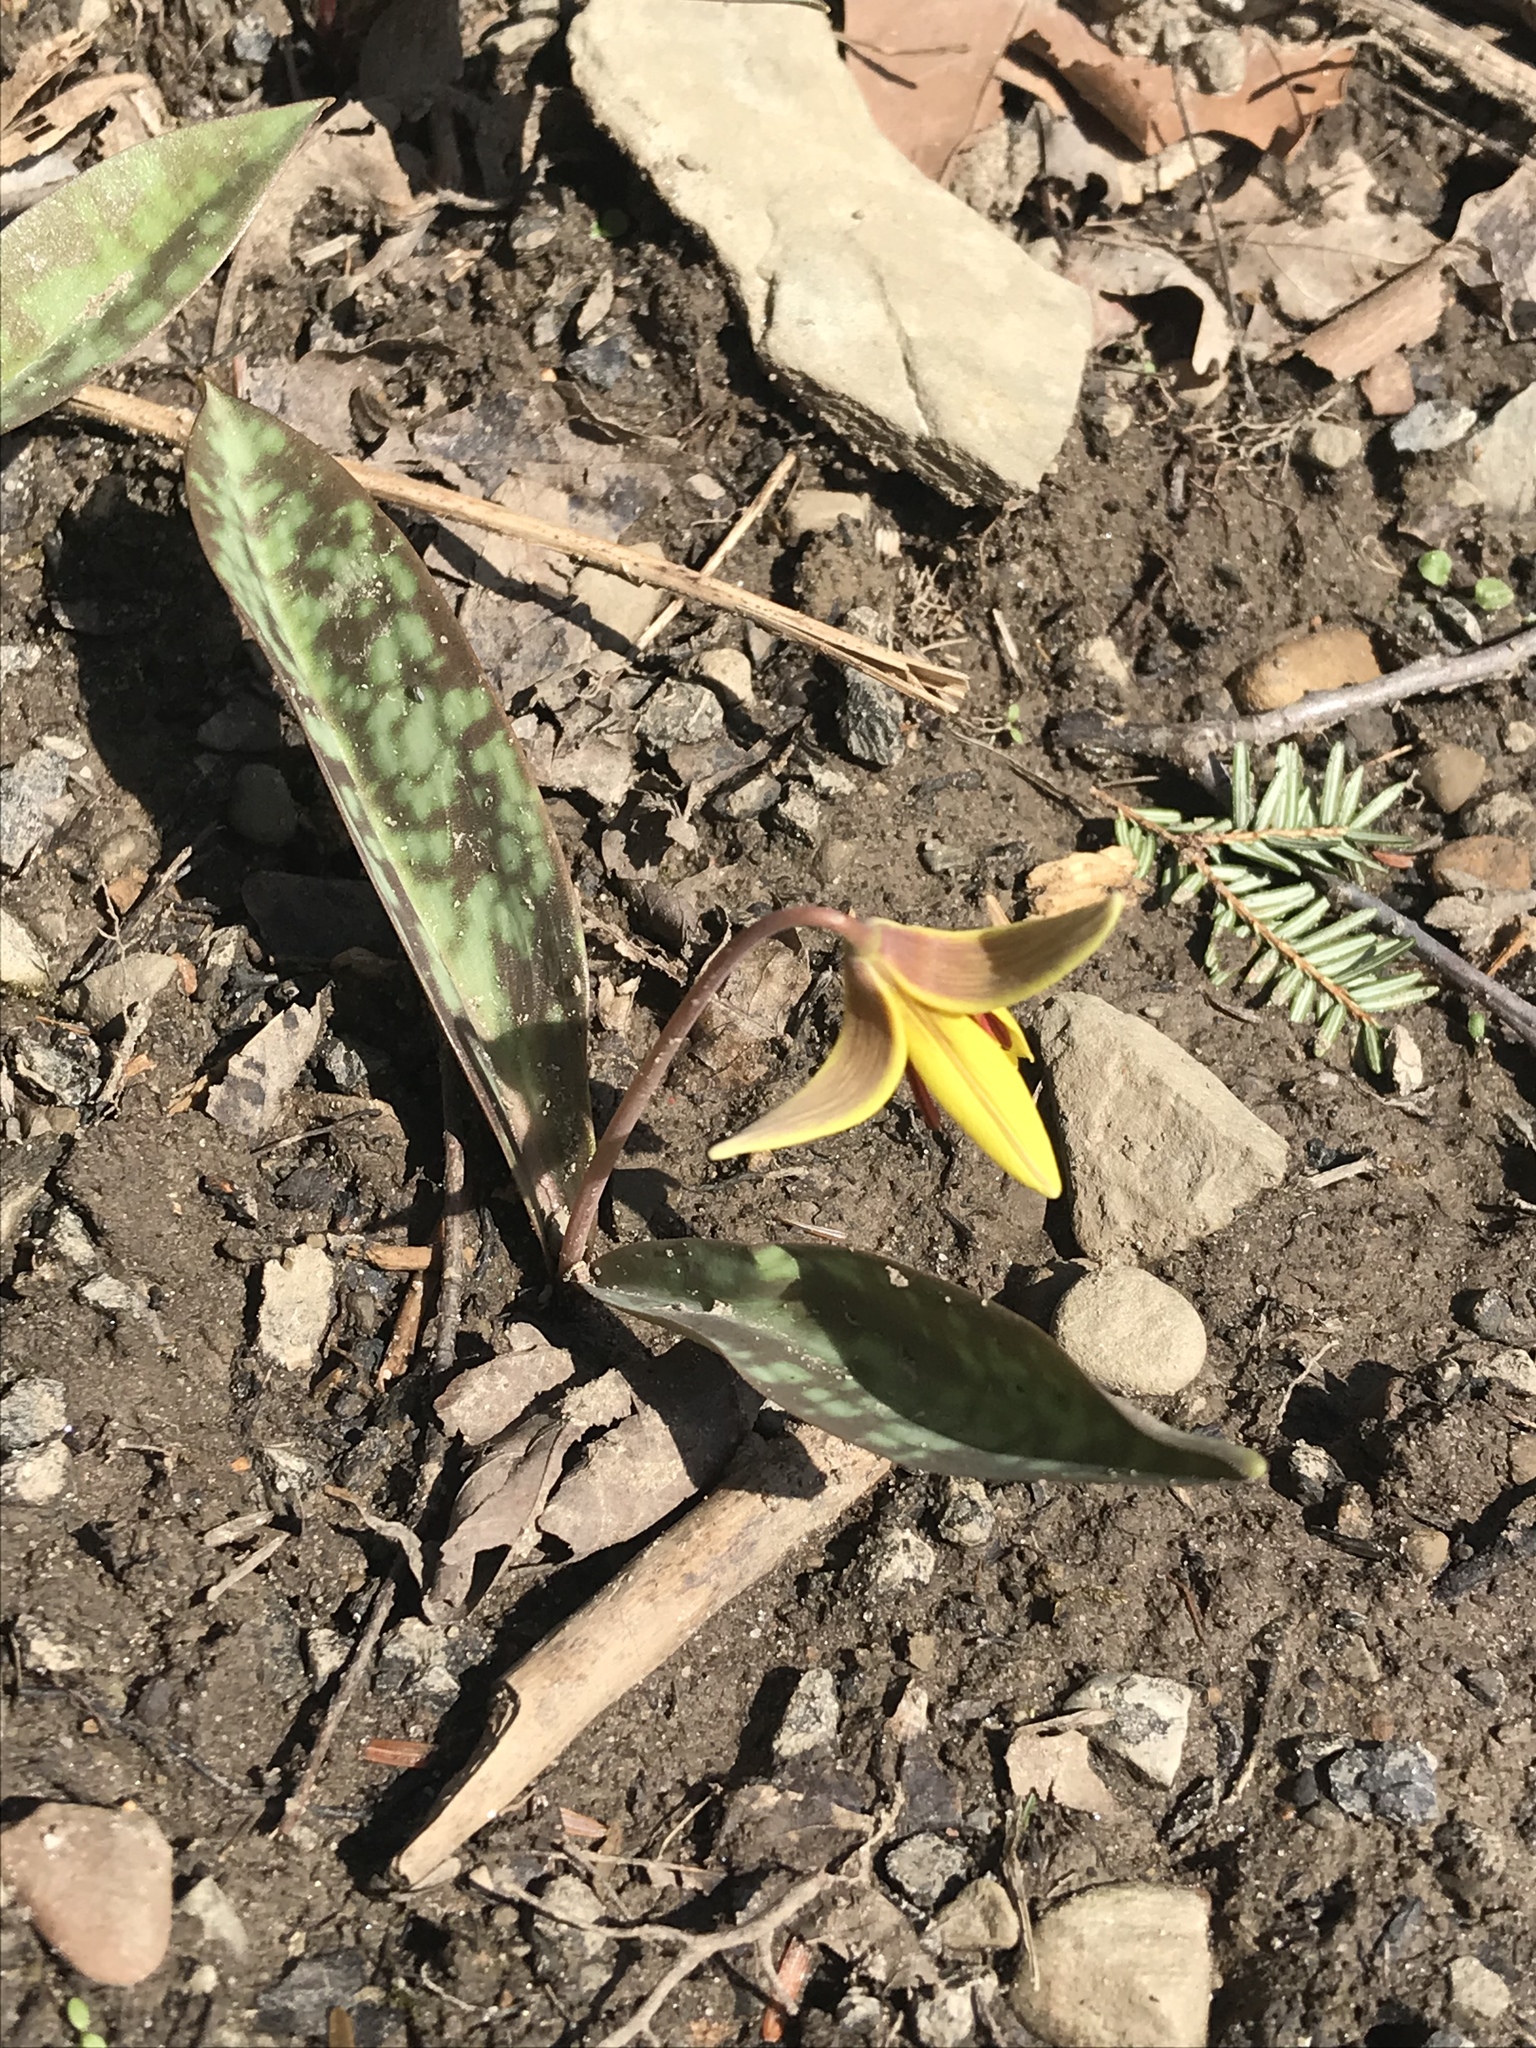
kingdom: Plantae
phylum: Tracheophyta
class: Liliopsida
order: Liliales
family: Liliaceae
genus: Erythronium
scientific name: Erythronium americanum
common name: Yellow adder's-tongue
